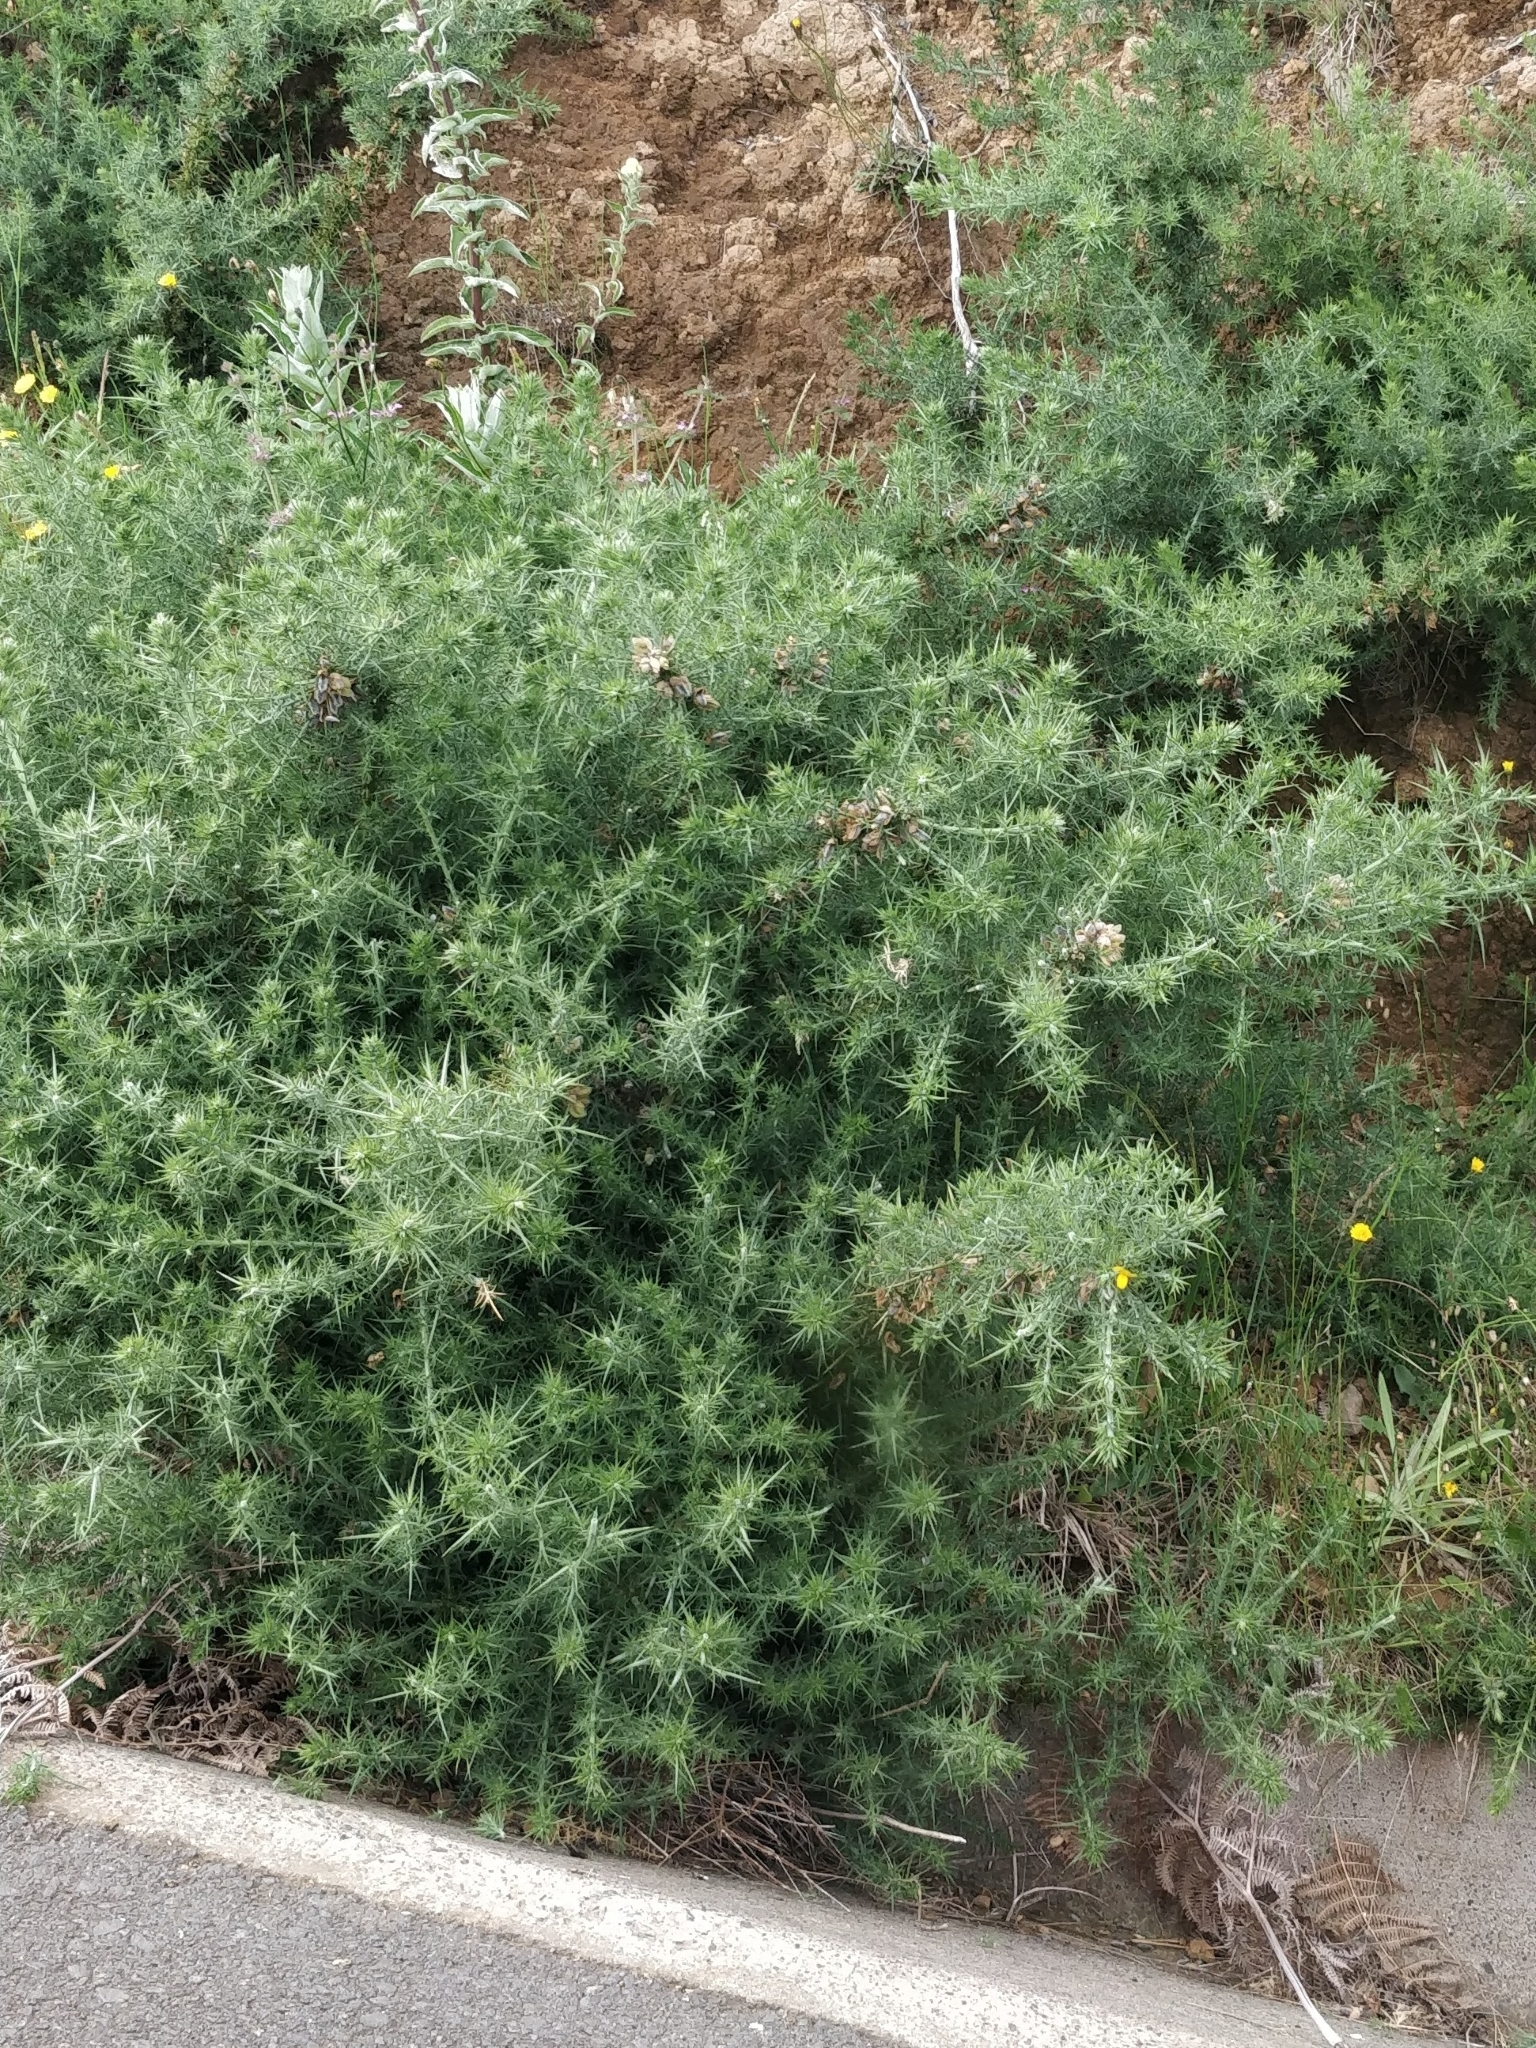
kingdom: Plantae
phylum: Tracheophyta
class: Magnoliopsida
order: Fabales
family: Fabaceae
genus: Ulex
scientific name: Ulex europaeus
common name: Common gorse
